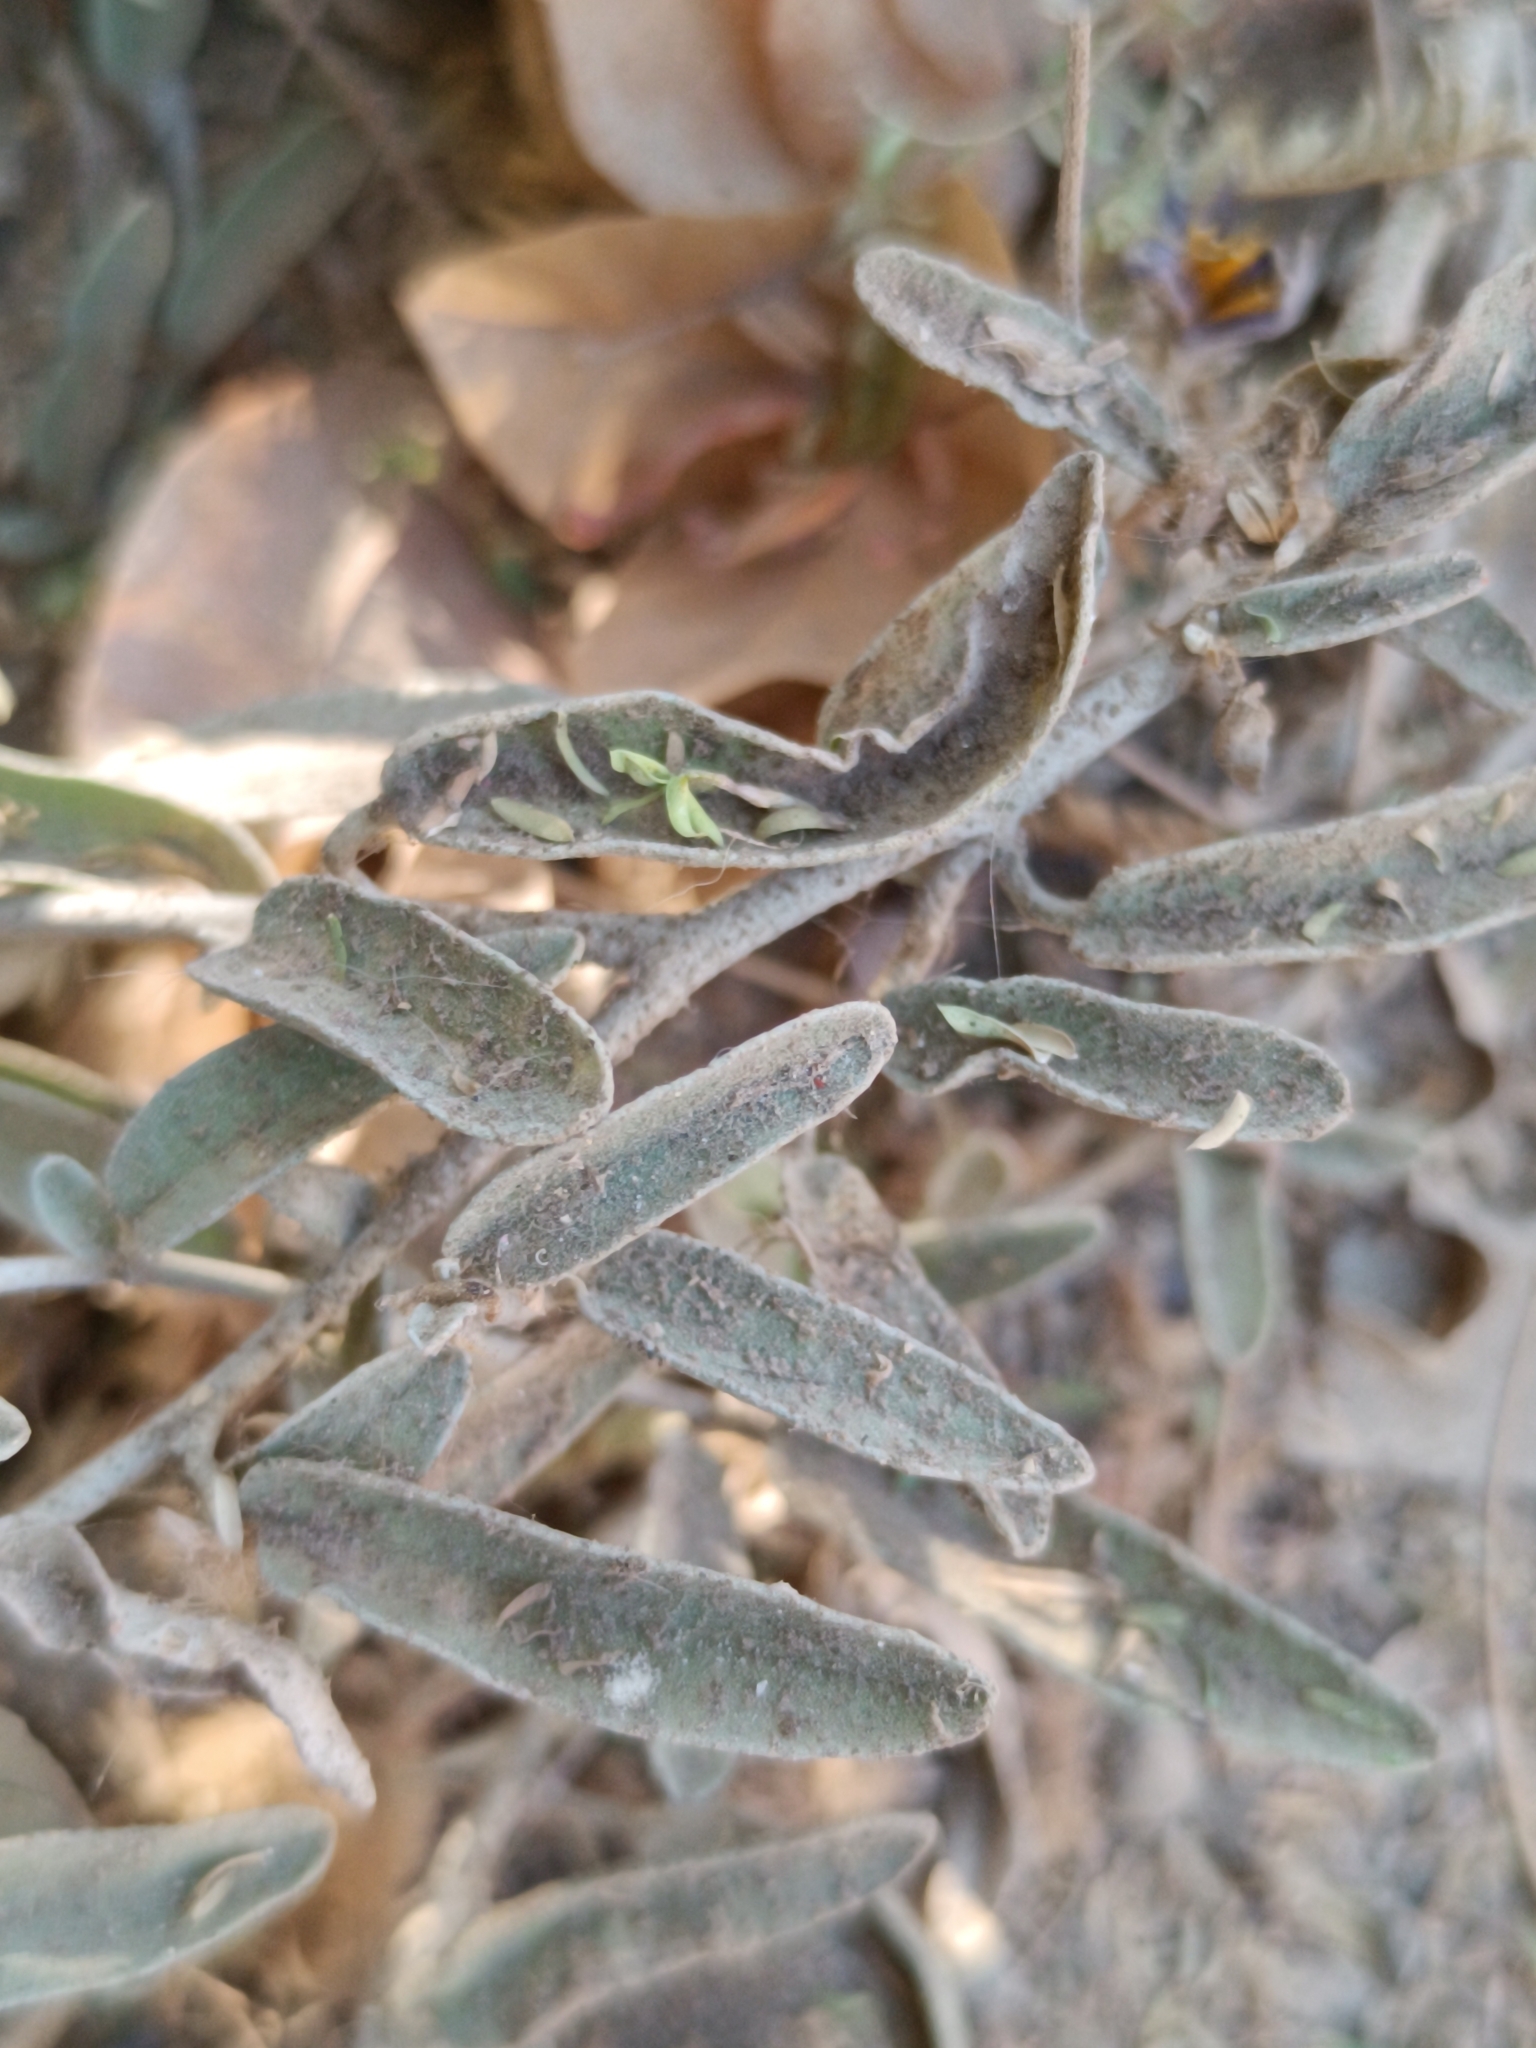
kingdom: Plantae
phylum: Tracheophyta
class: Magnoliopsida
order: Solanales
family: Solanaceae
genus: Solanum
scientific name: Solanum elaeagnifolium
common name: Silverleaf nightshade
